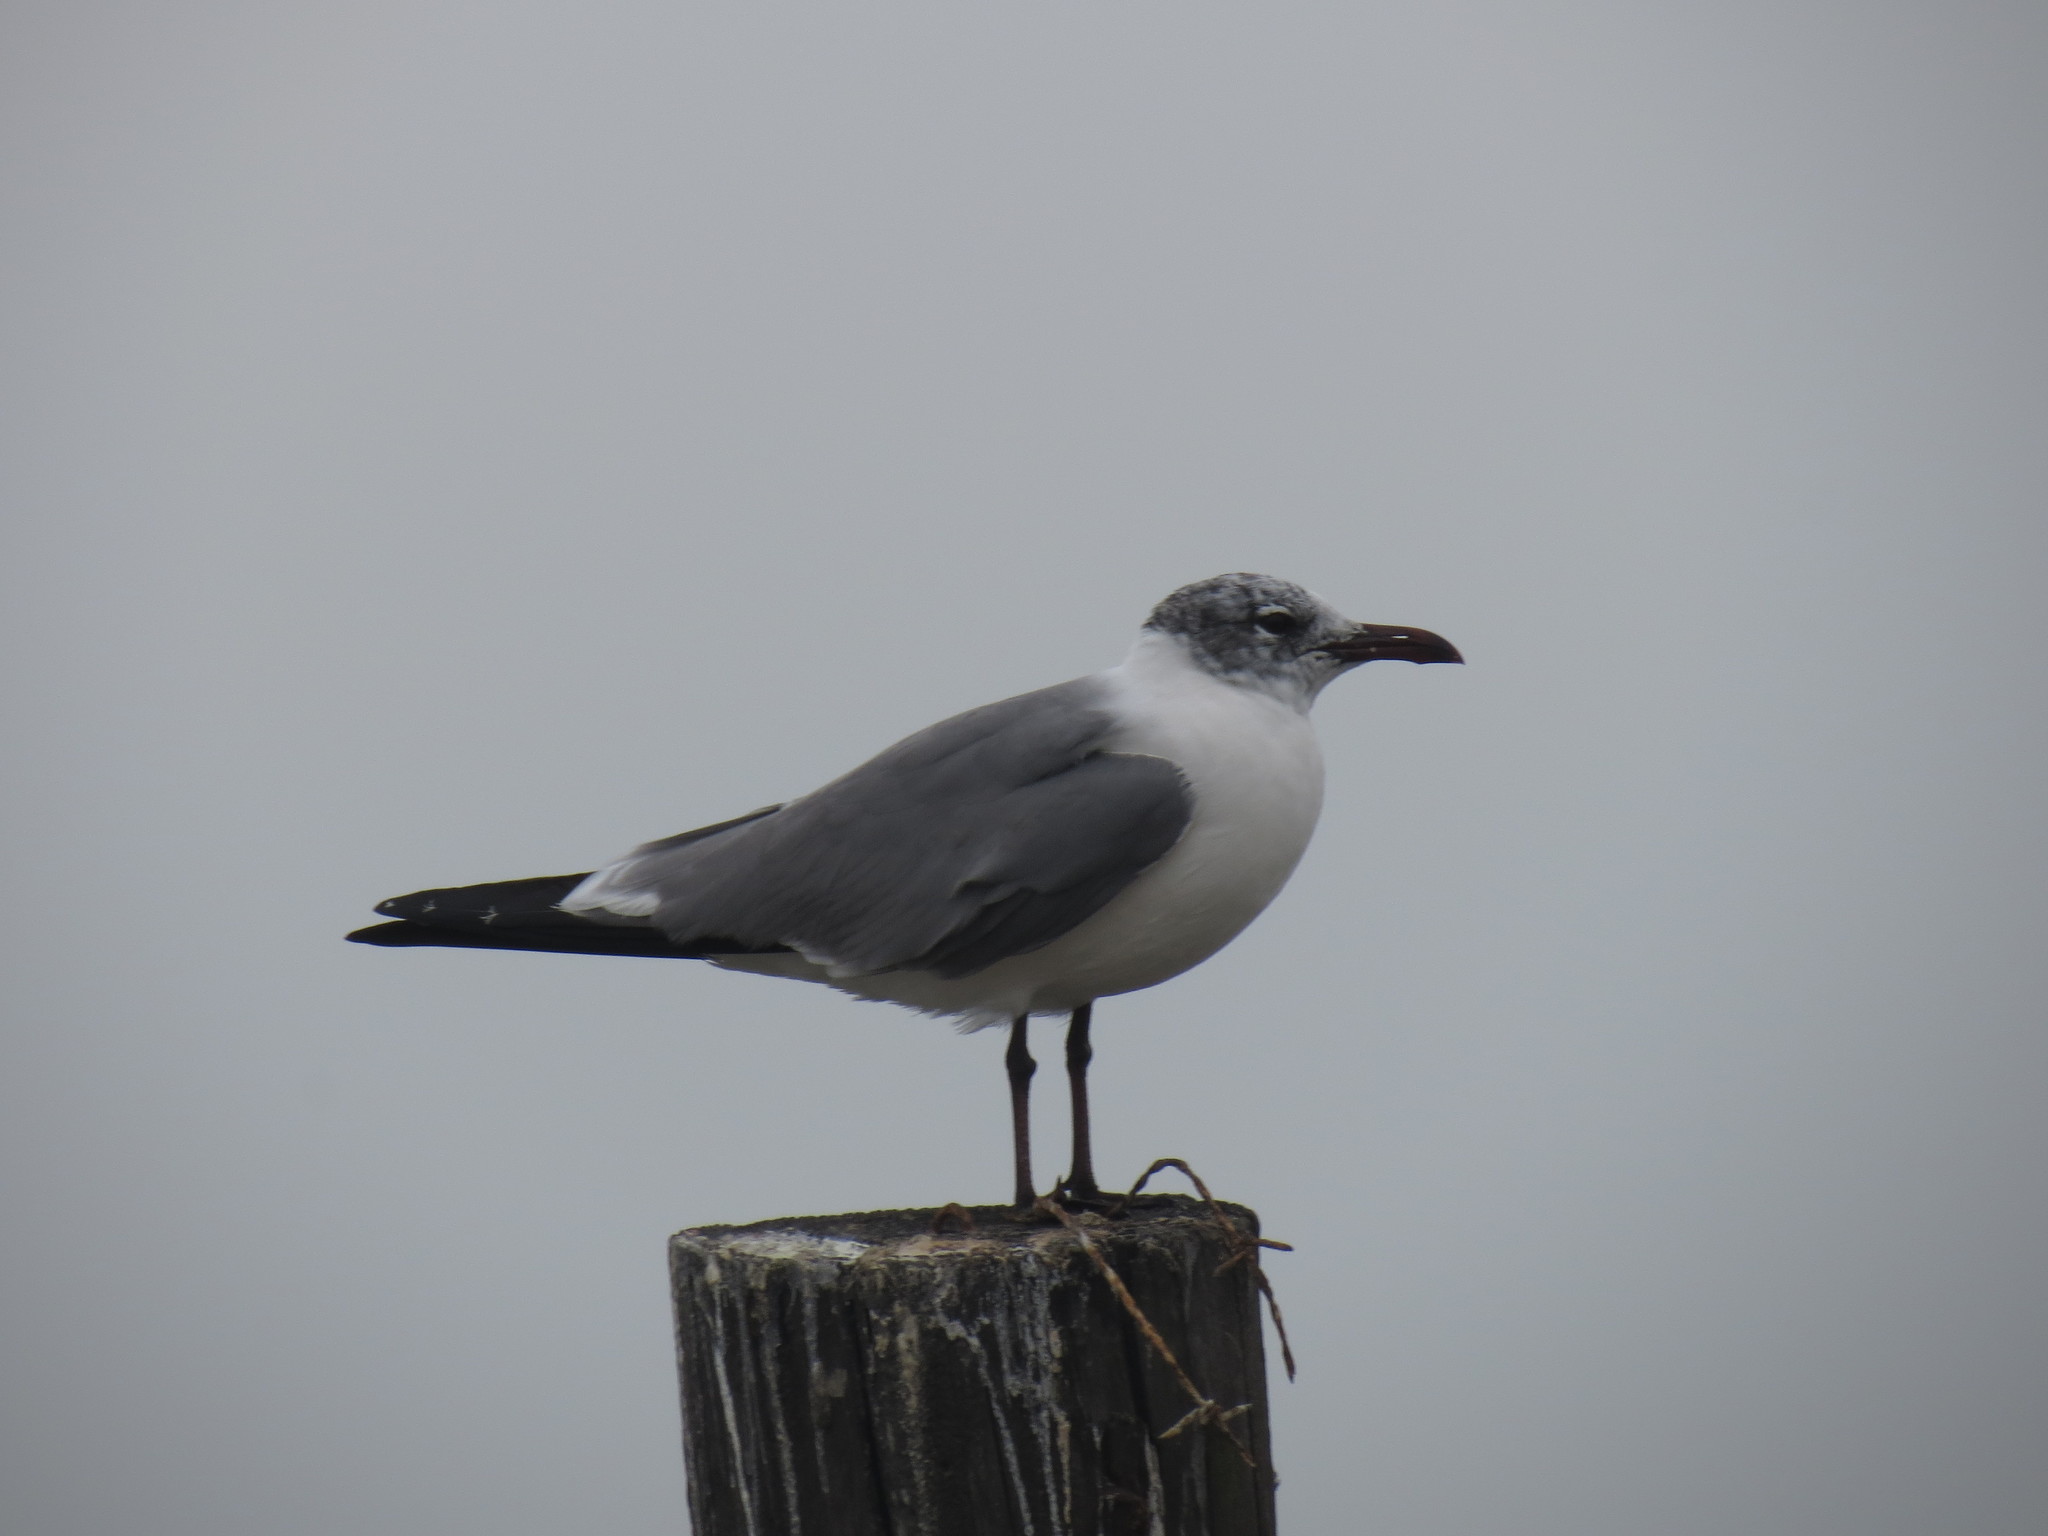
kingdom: Animalia
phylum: Chordata
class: Aves
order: Charadriiformes
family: Laridae
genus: Leucophaeus
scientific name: Leucophaeus atricilla
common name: Laughing gull
